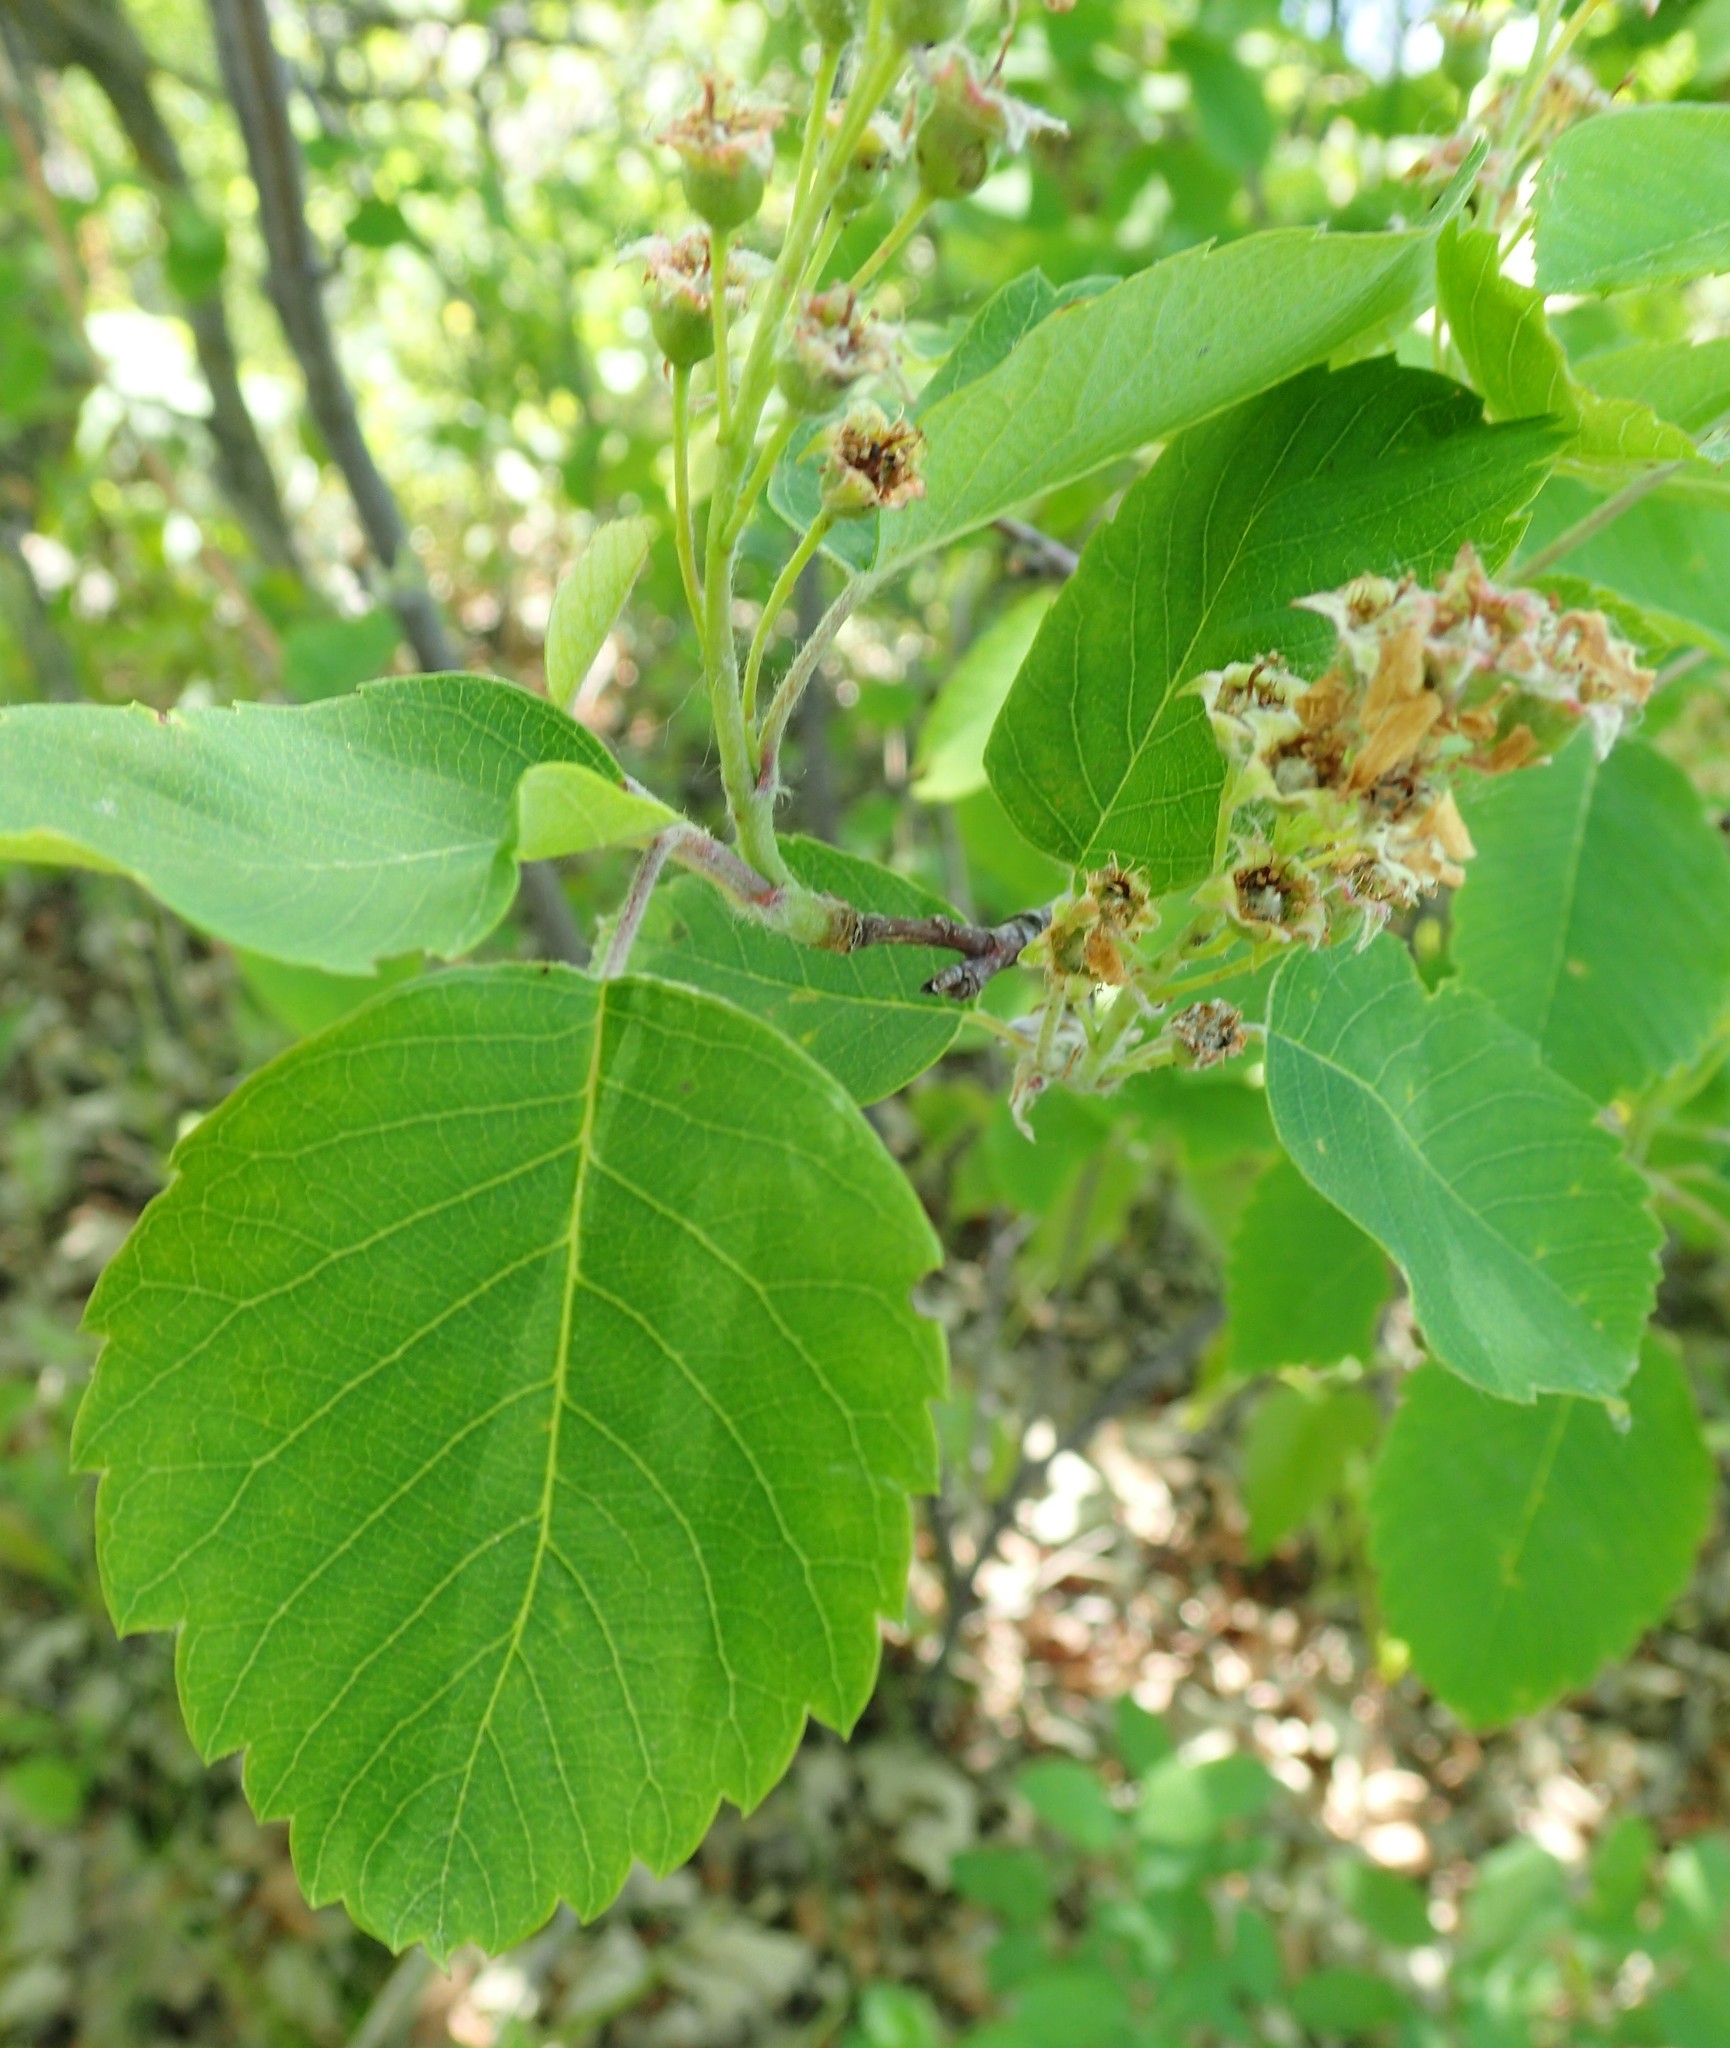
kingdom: Plantae
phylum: Tracheophyta
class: Magnoliopsida
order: Rosales
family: Rosaceae
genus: Amelanchier
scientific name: Amelanchier alnifolia
